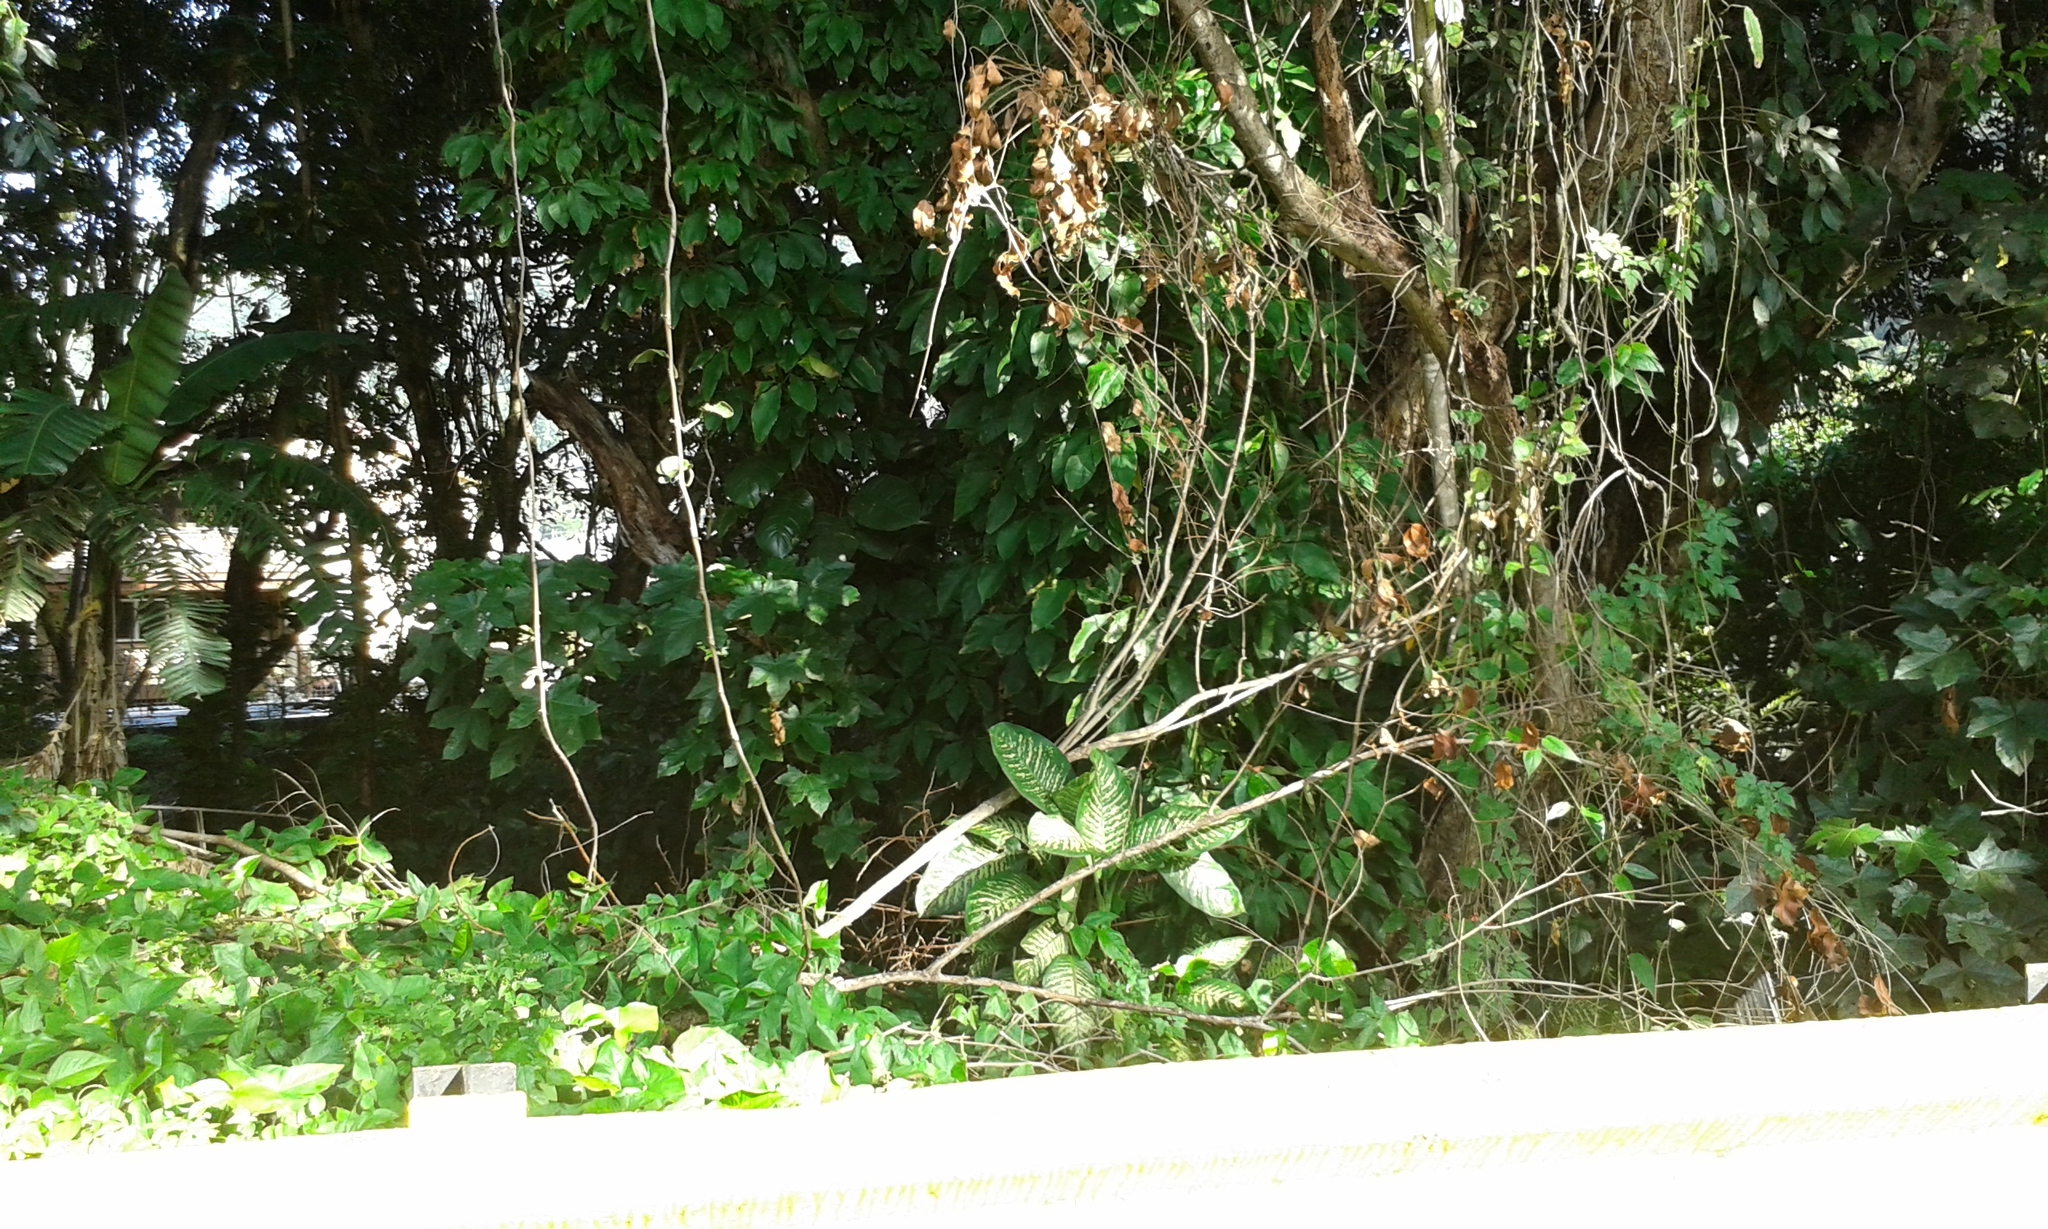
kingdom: Plantae
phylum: Tracheophyta
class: Liliopsida
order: Alismatales
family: Araceae
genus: Dieffenbachia
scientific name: Dieffenbachia seguine
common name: Dumbcane
